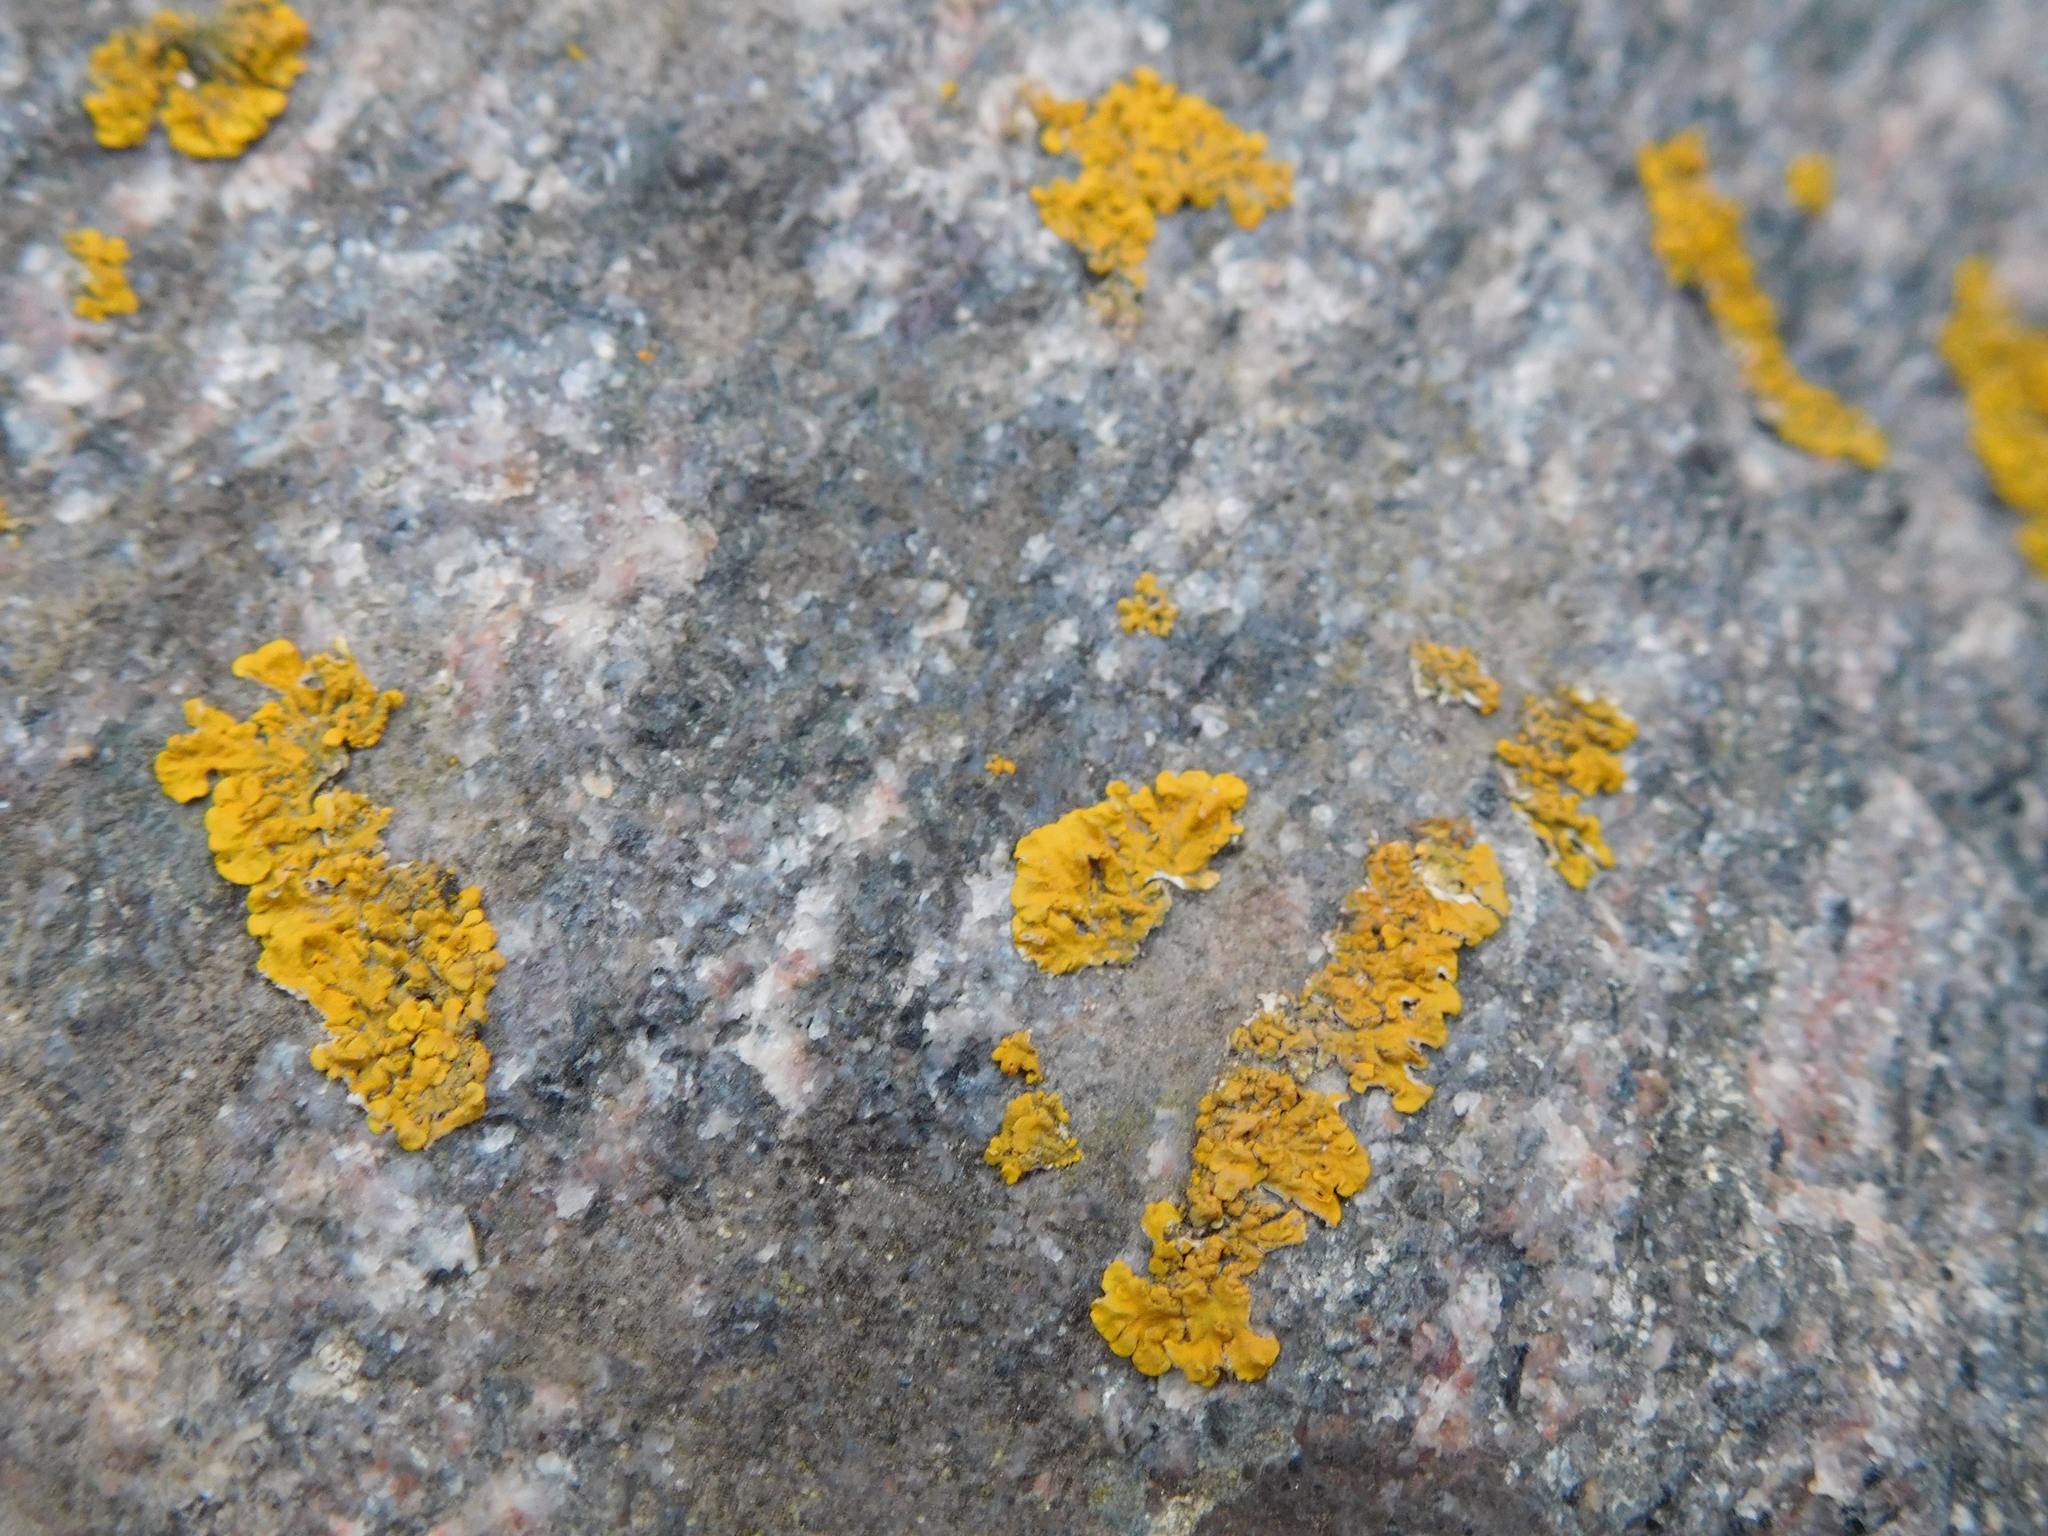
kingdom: Fungi
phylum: Ascomycota
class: Lecanoromycetes
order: Teloschistales
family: Teloschistaceae
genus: Xanthoria
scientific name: Xanthoria parietina
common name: Common orange lichen
